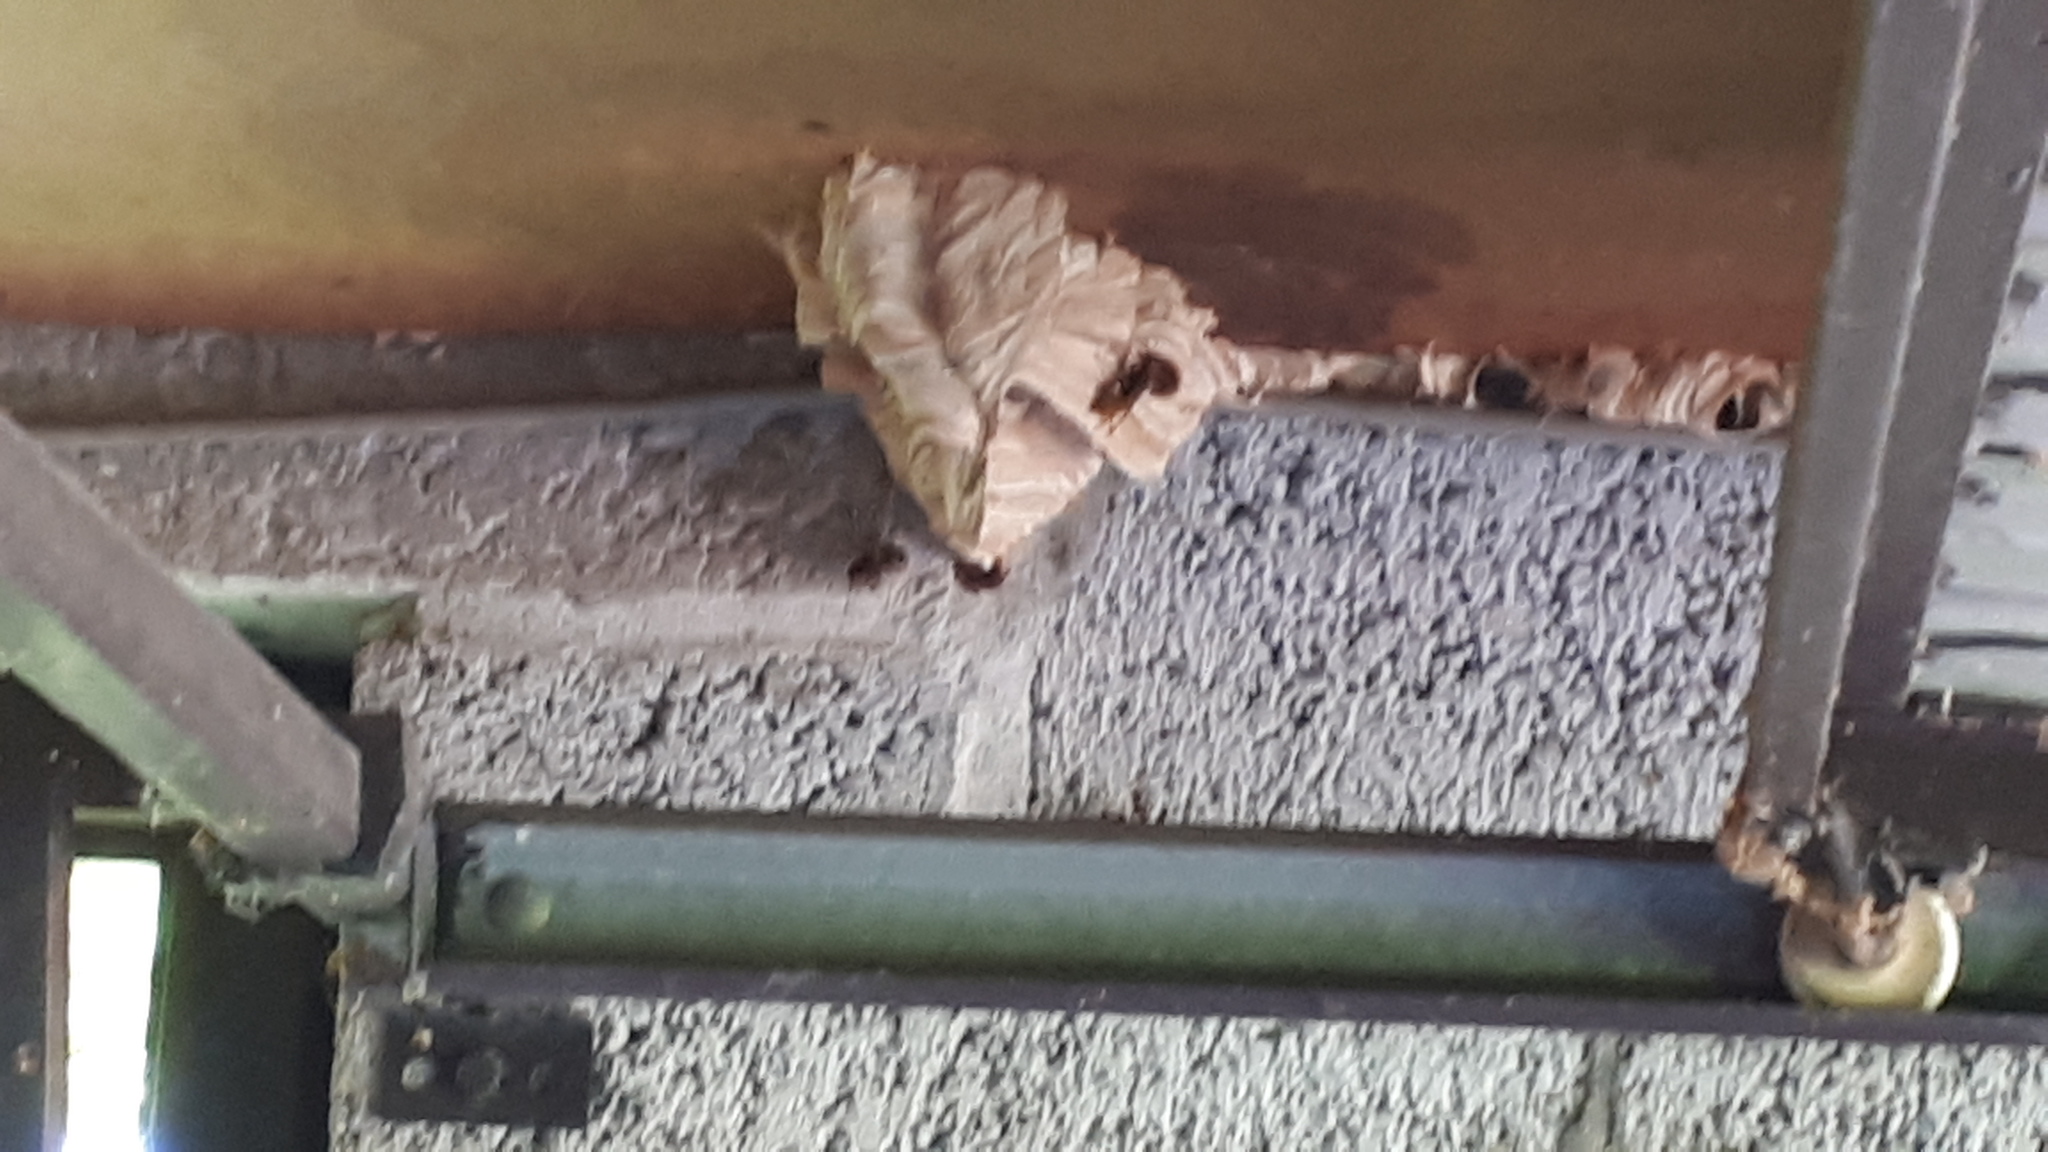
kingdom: Animalia
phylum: Arthropoda
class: Insecta
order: Hymenoptera
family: Vespidae
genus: Vespa
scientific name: Vespa crabro
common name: Hornet
